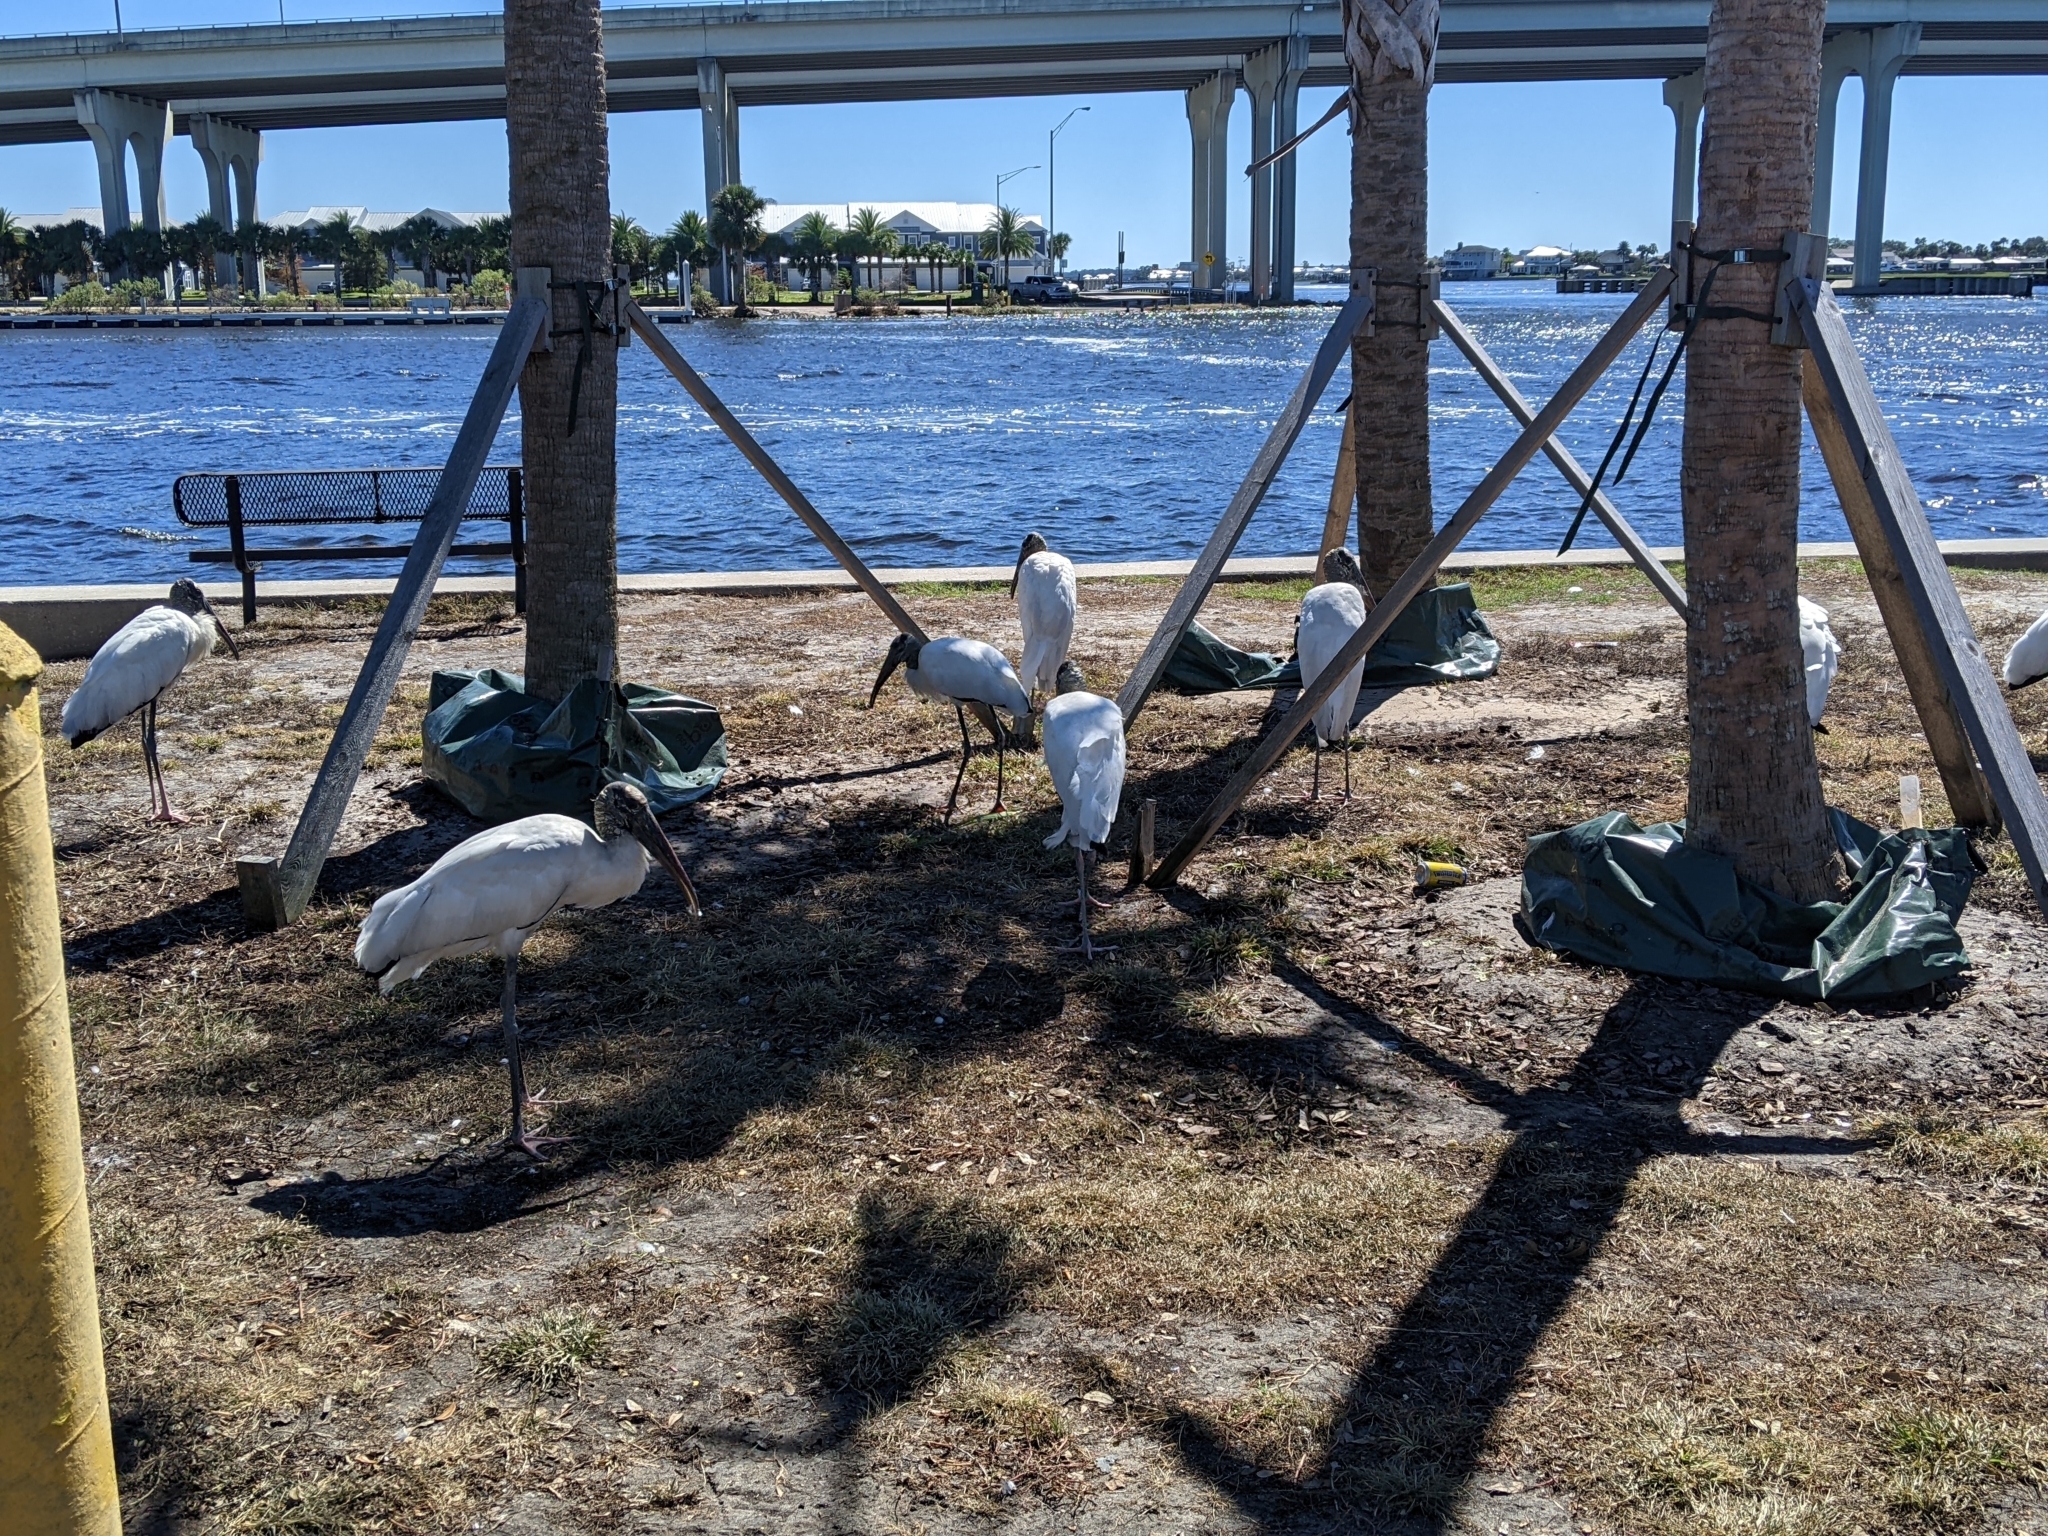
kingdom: Animalia
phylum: Chordata
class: Aves
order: Ciconiiformes
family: Ciconiidae
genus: Mycteria
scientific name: Mycteria americana
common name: Wood stork
